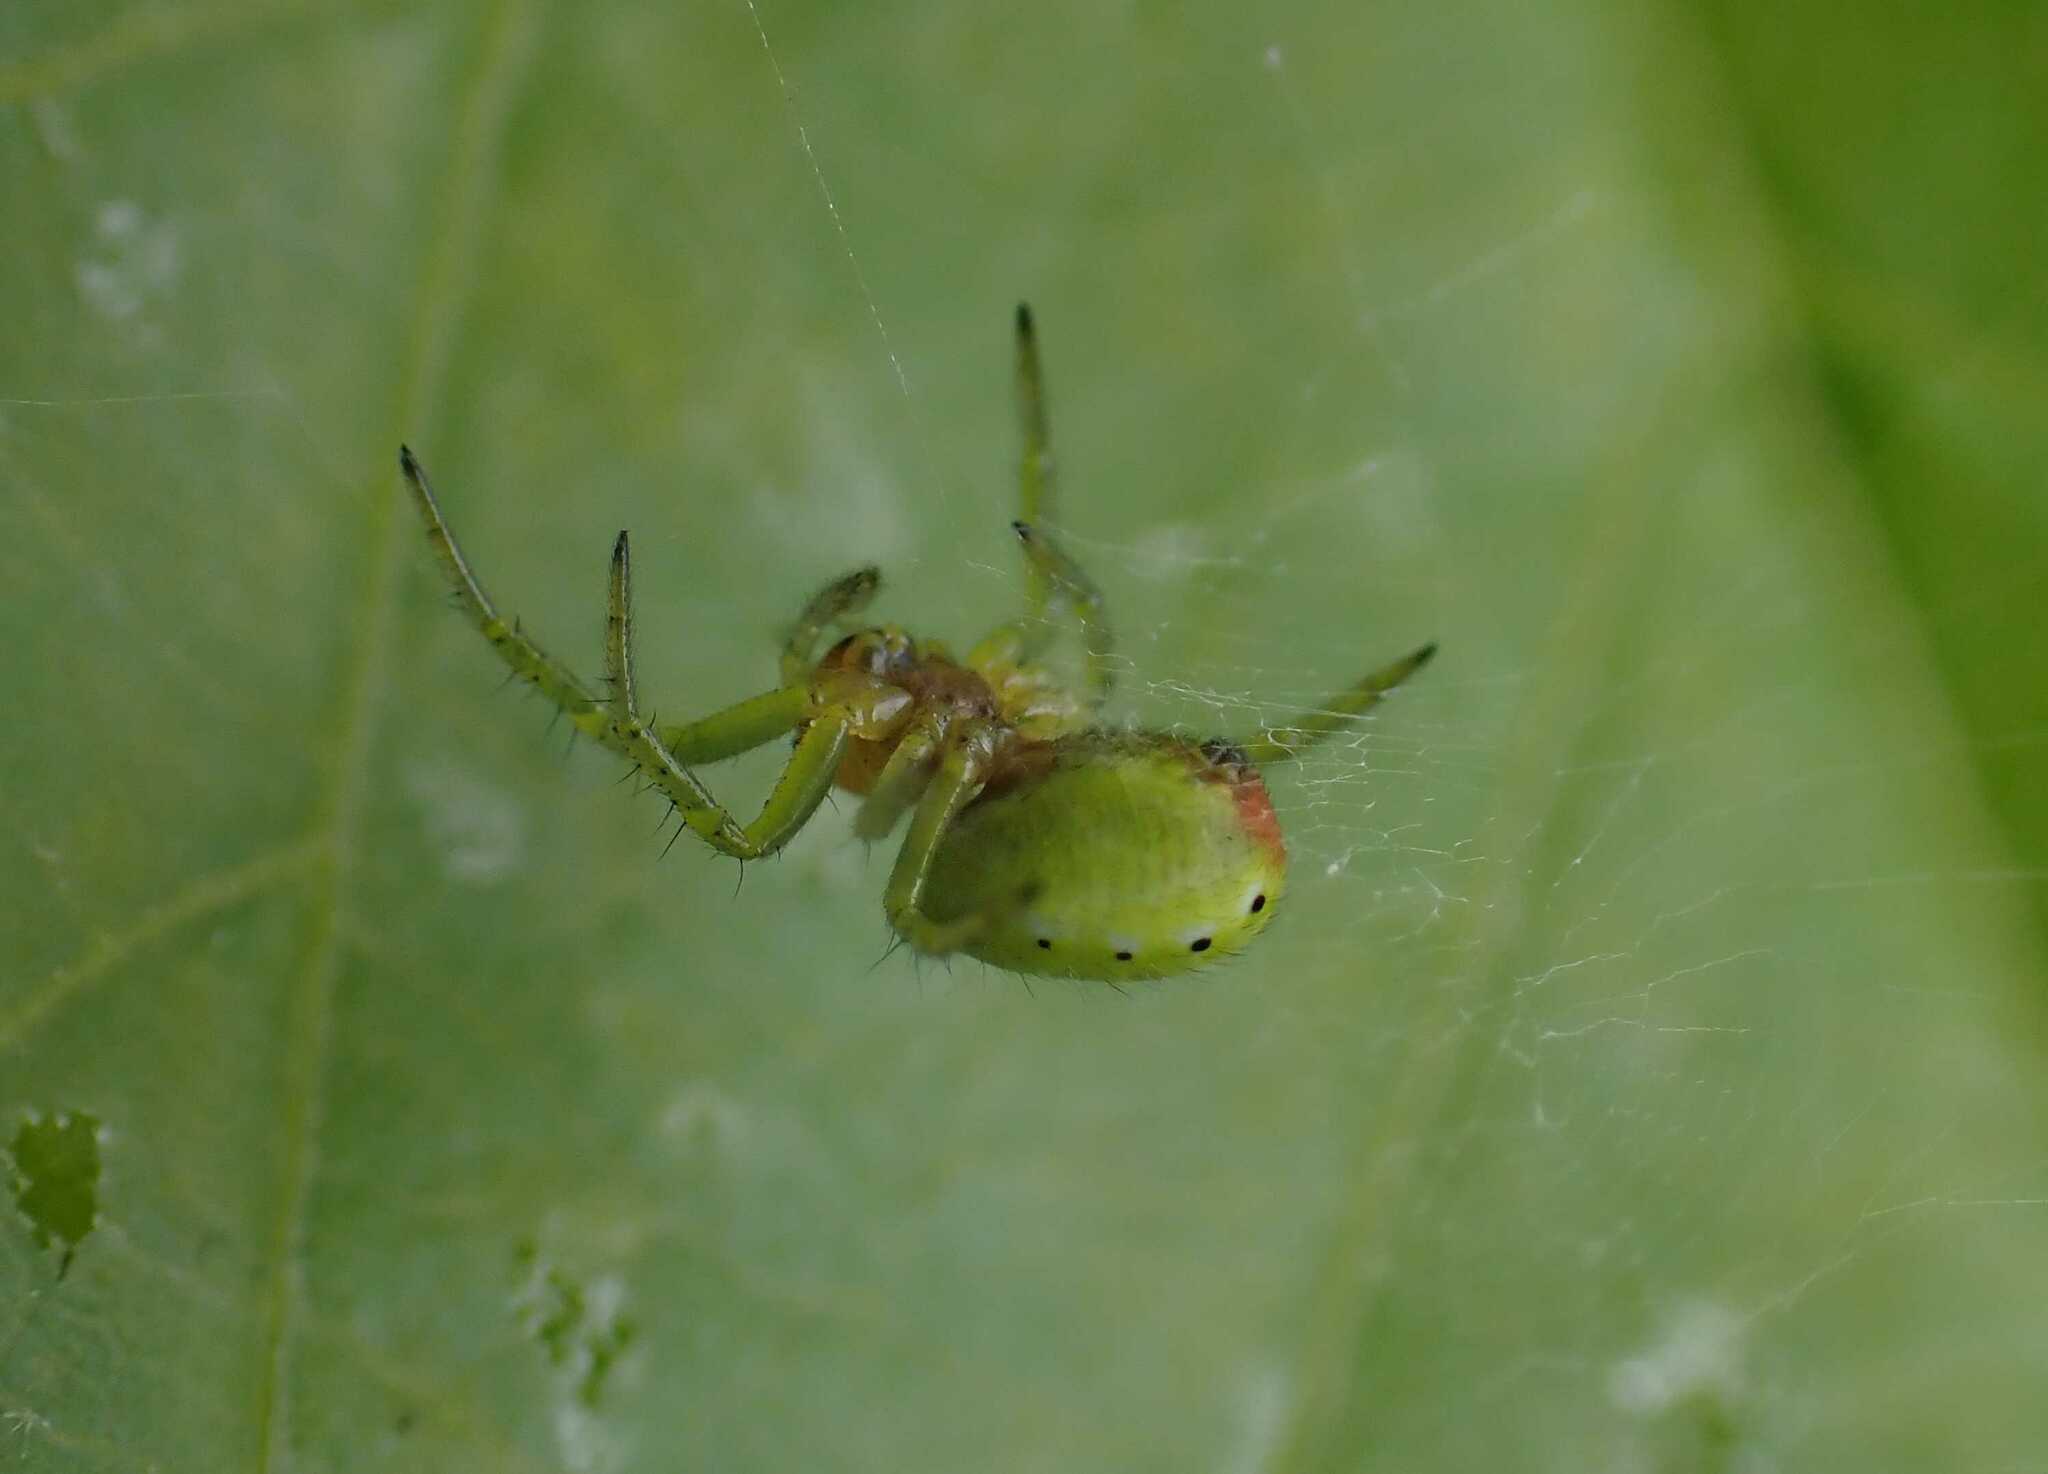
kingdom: Animalia
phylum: Arthropoda
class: Arachnida
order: Araneae
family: Araneidae
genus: Araniella
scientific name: Araniella
